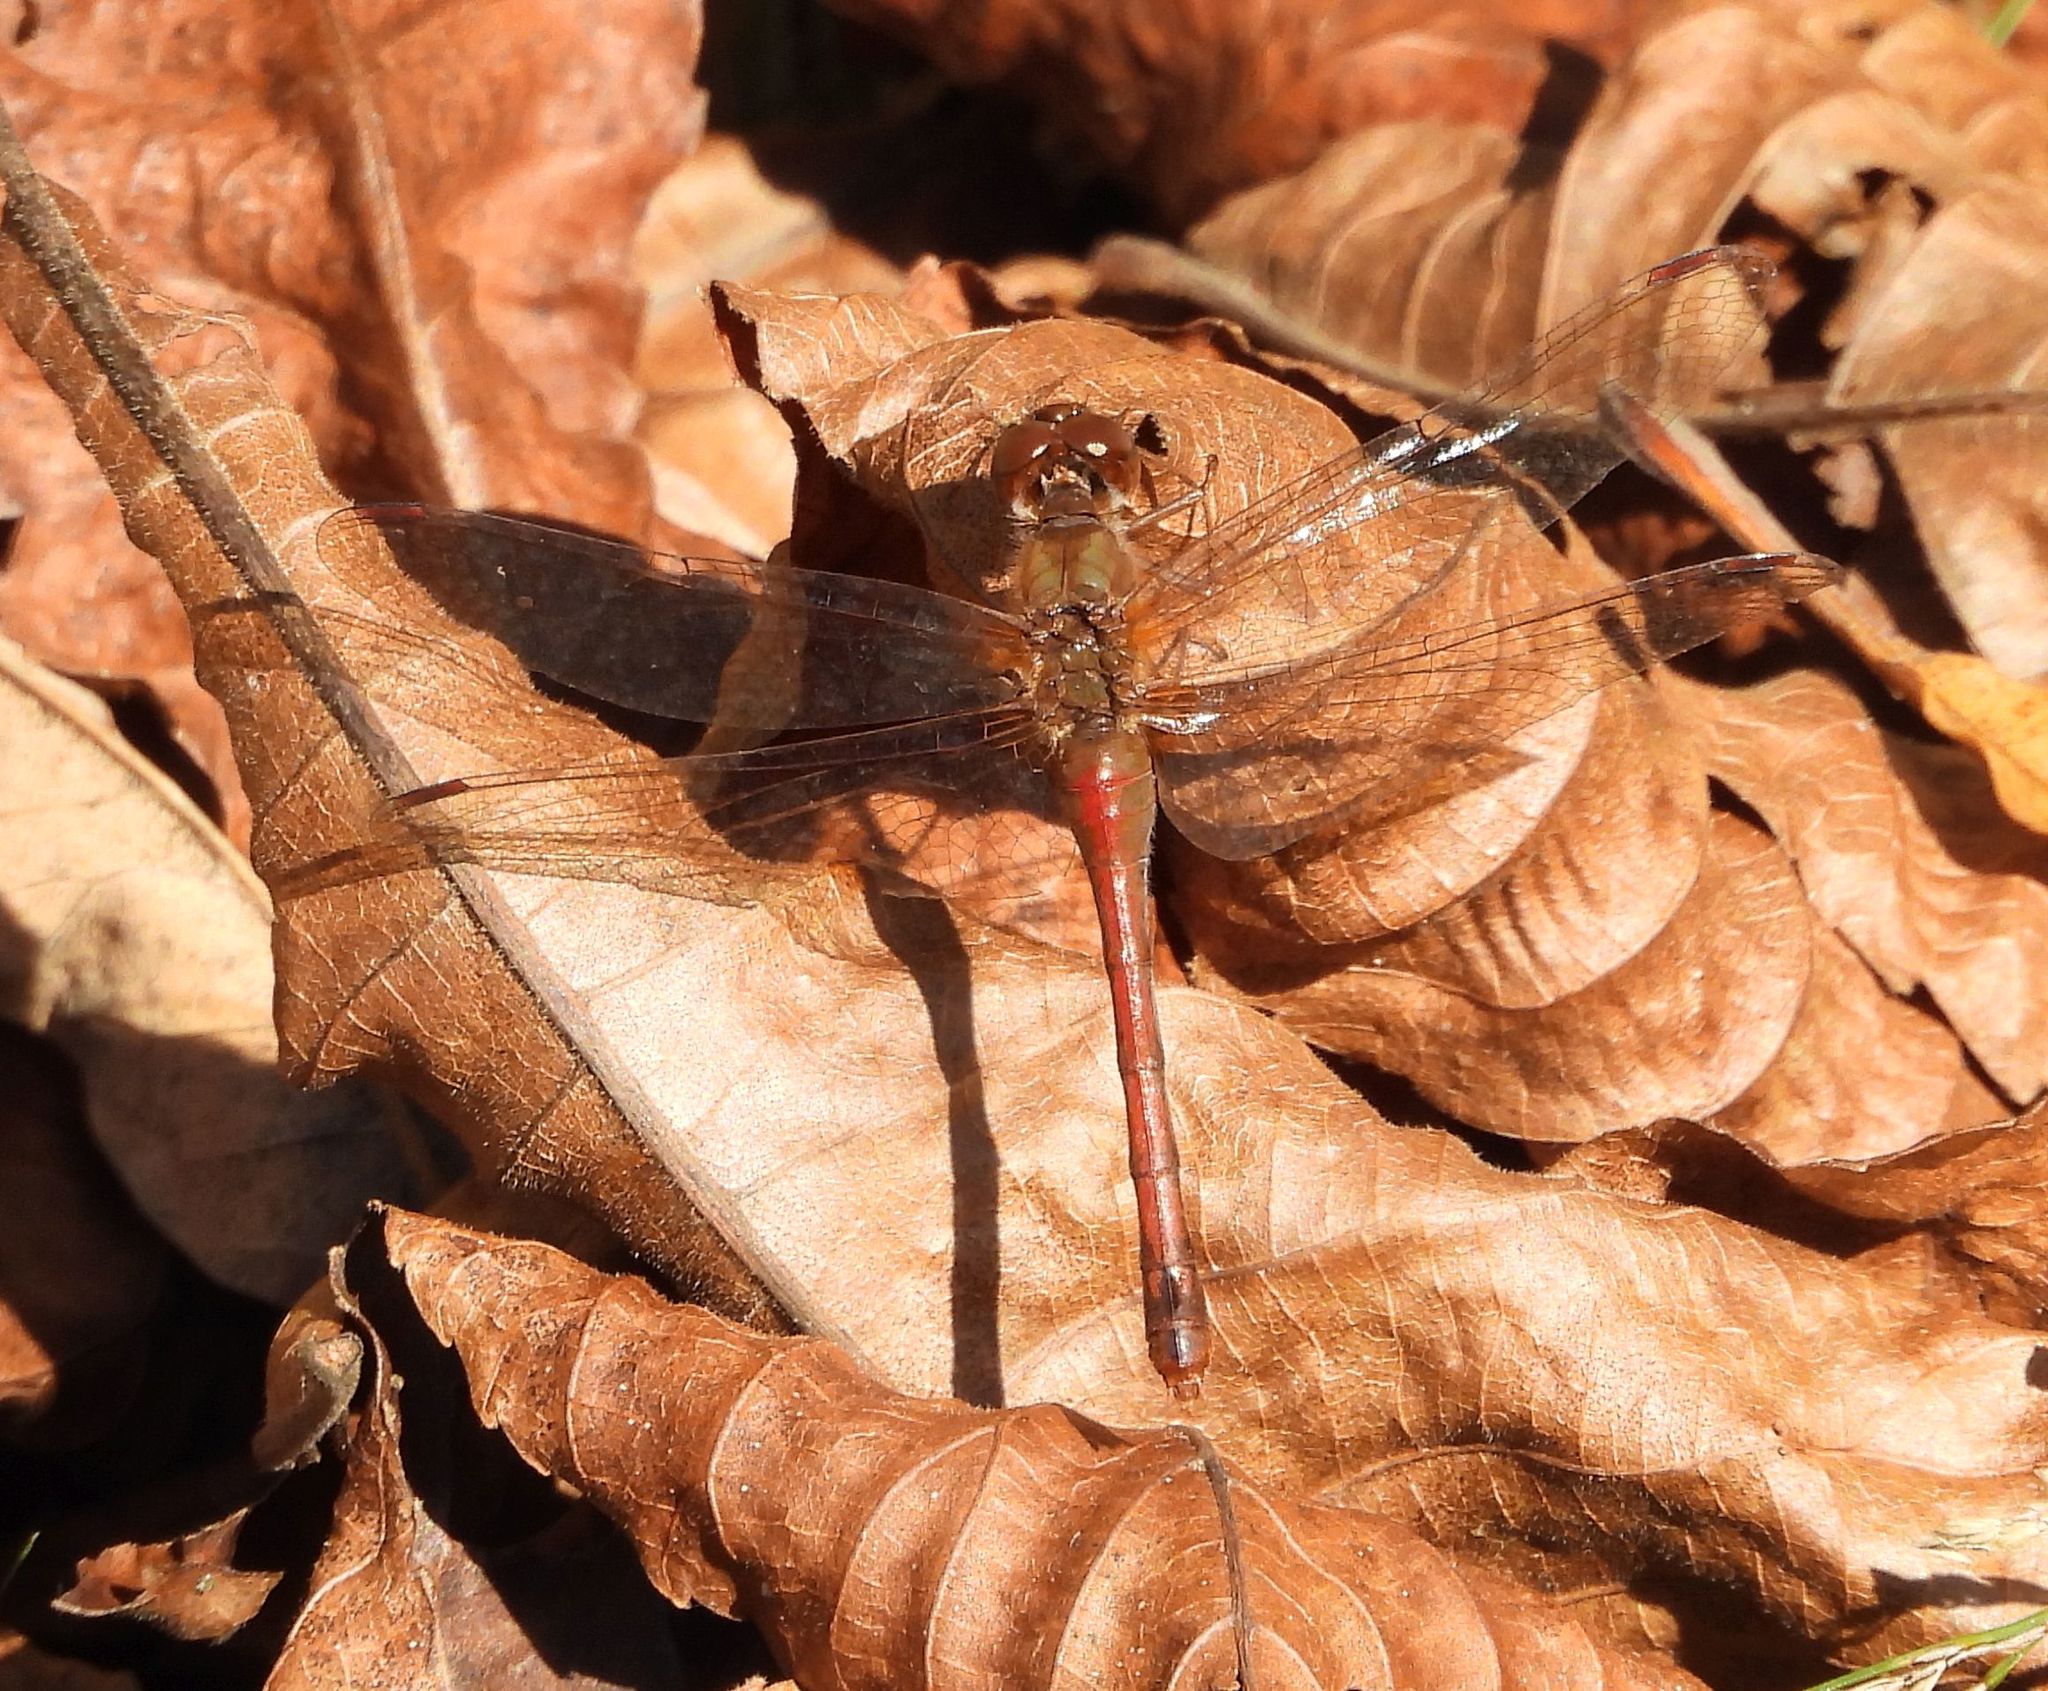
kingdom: Animalia
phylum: Arthropoda
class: Insecta
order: Odonata
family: Libellulidae
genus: Sympetrum
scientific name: Sympetrum vicinum
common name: Autumn meadowhawk
